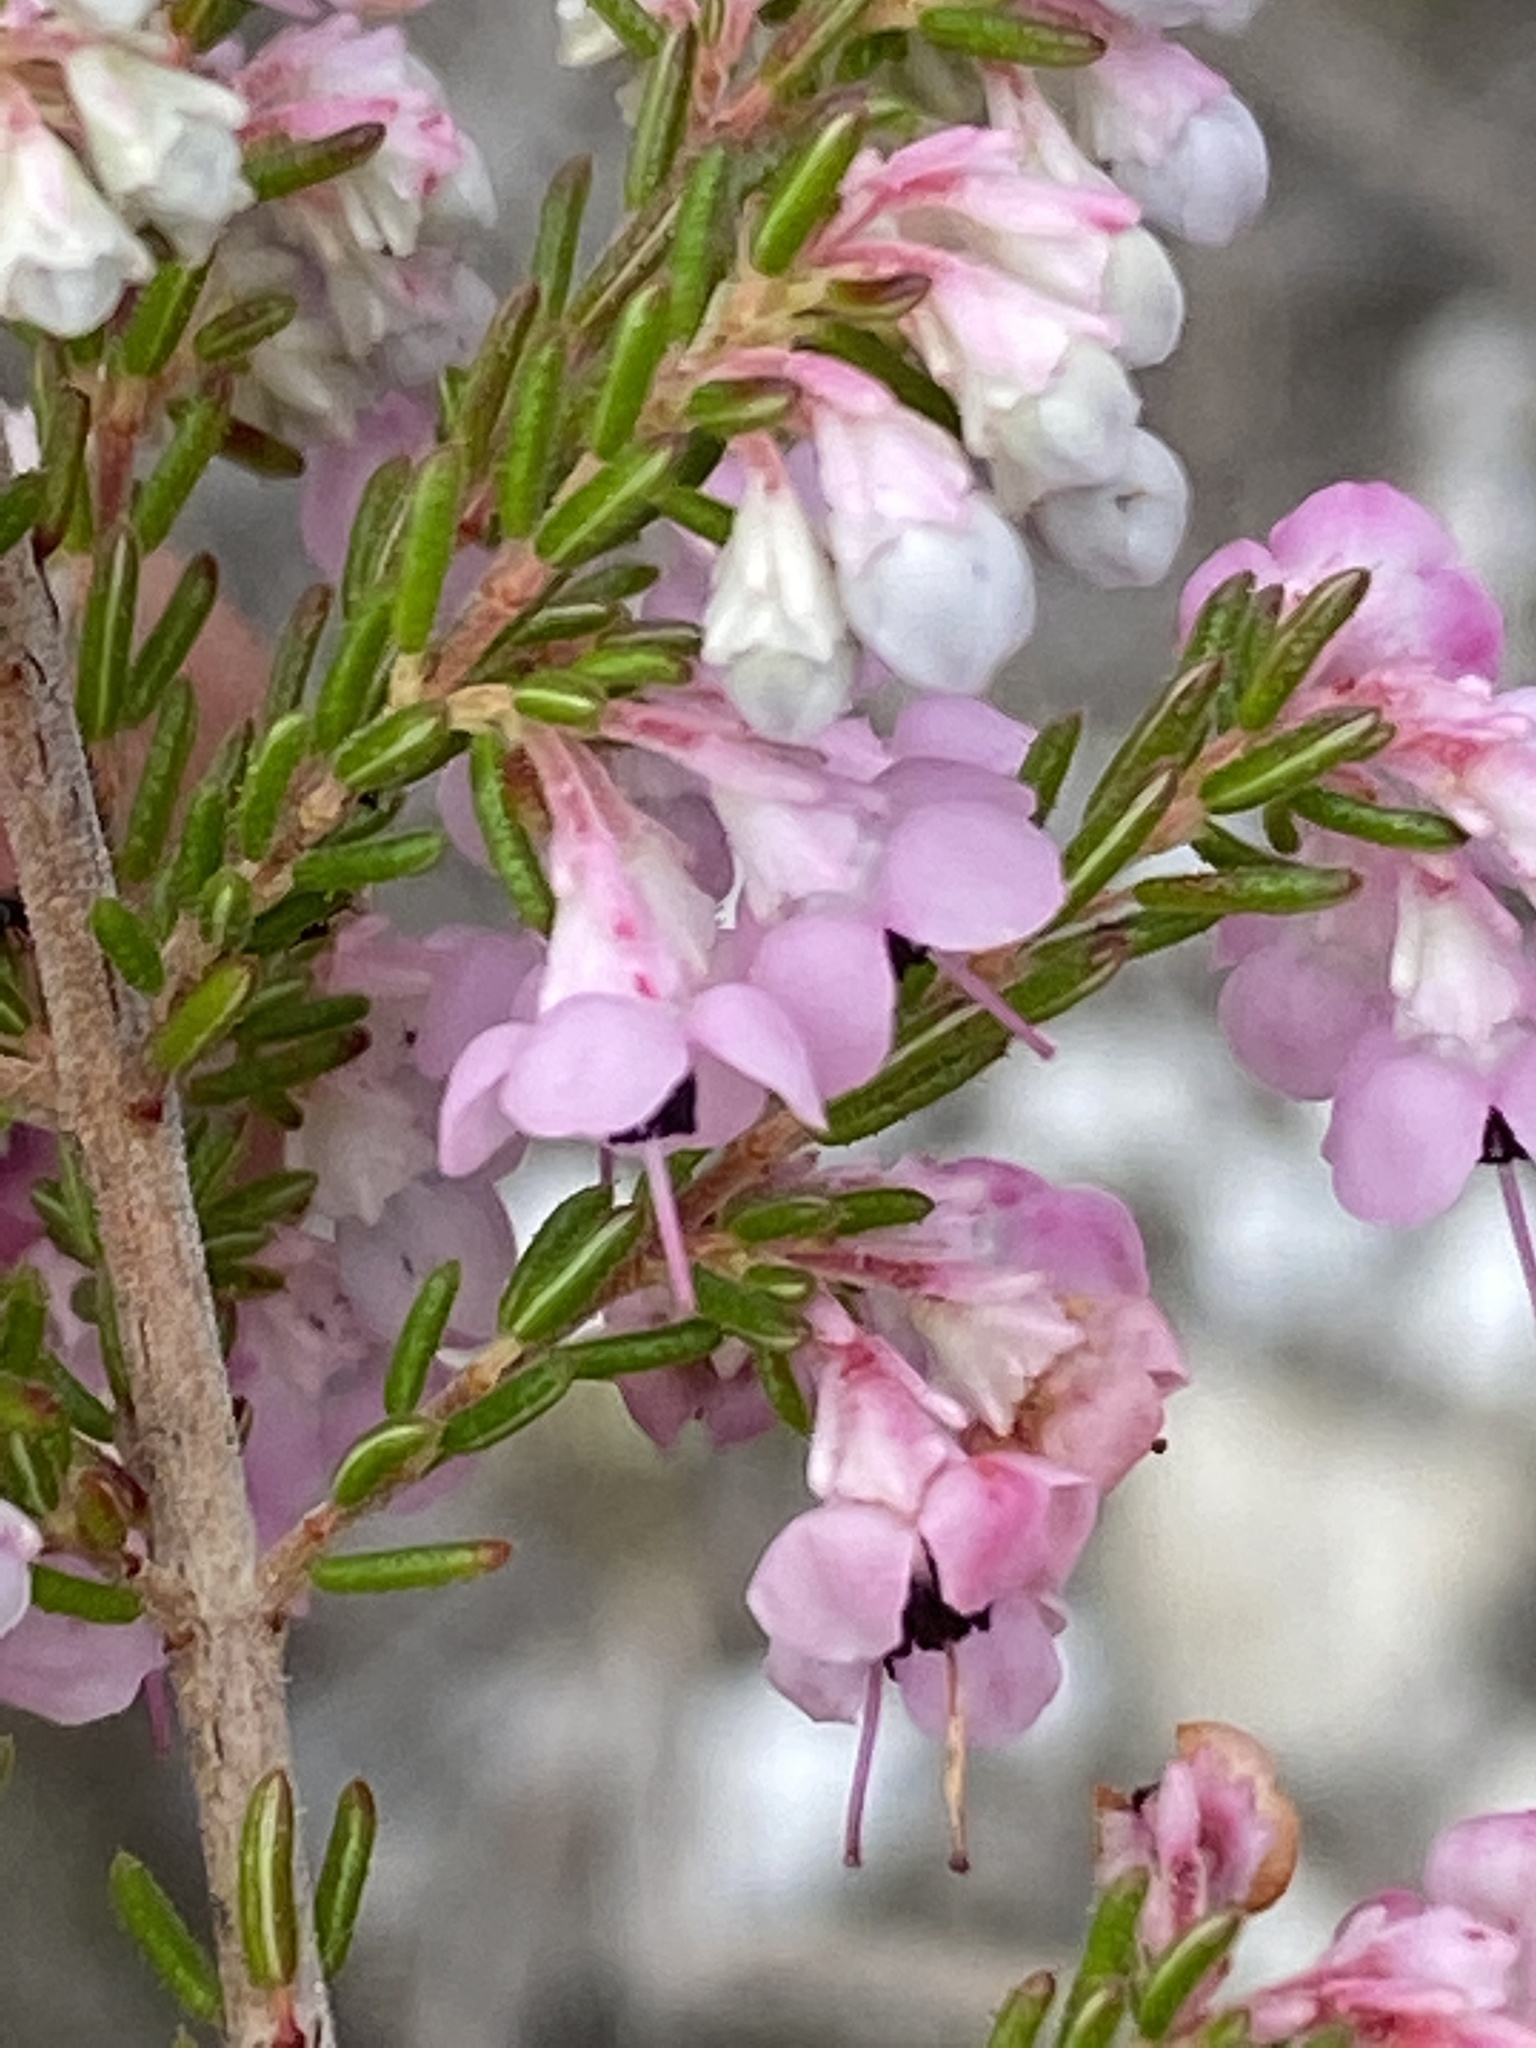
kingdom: Plantae
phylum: Tracheophyta
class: Magnoliopsida
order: Ericales
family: Ericaceae
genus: Erica
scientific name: Erica melanthera
